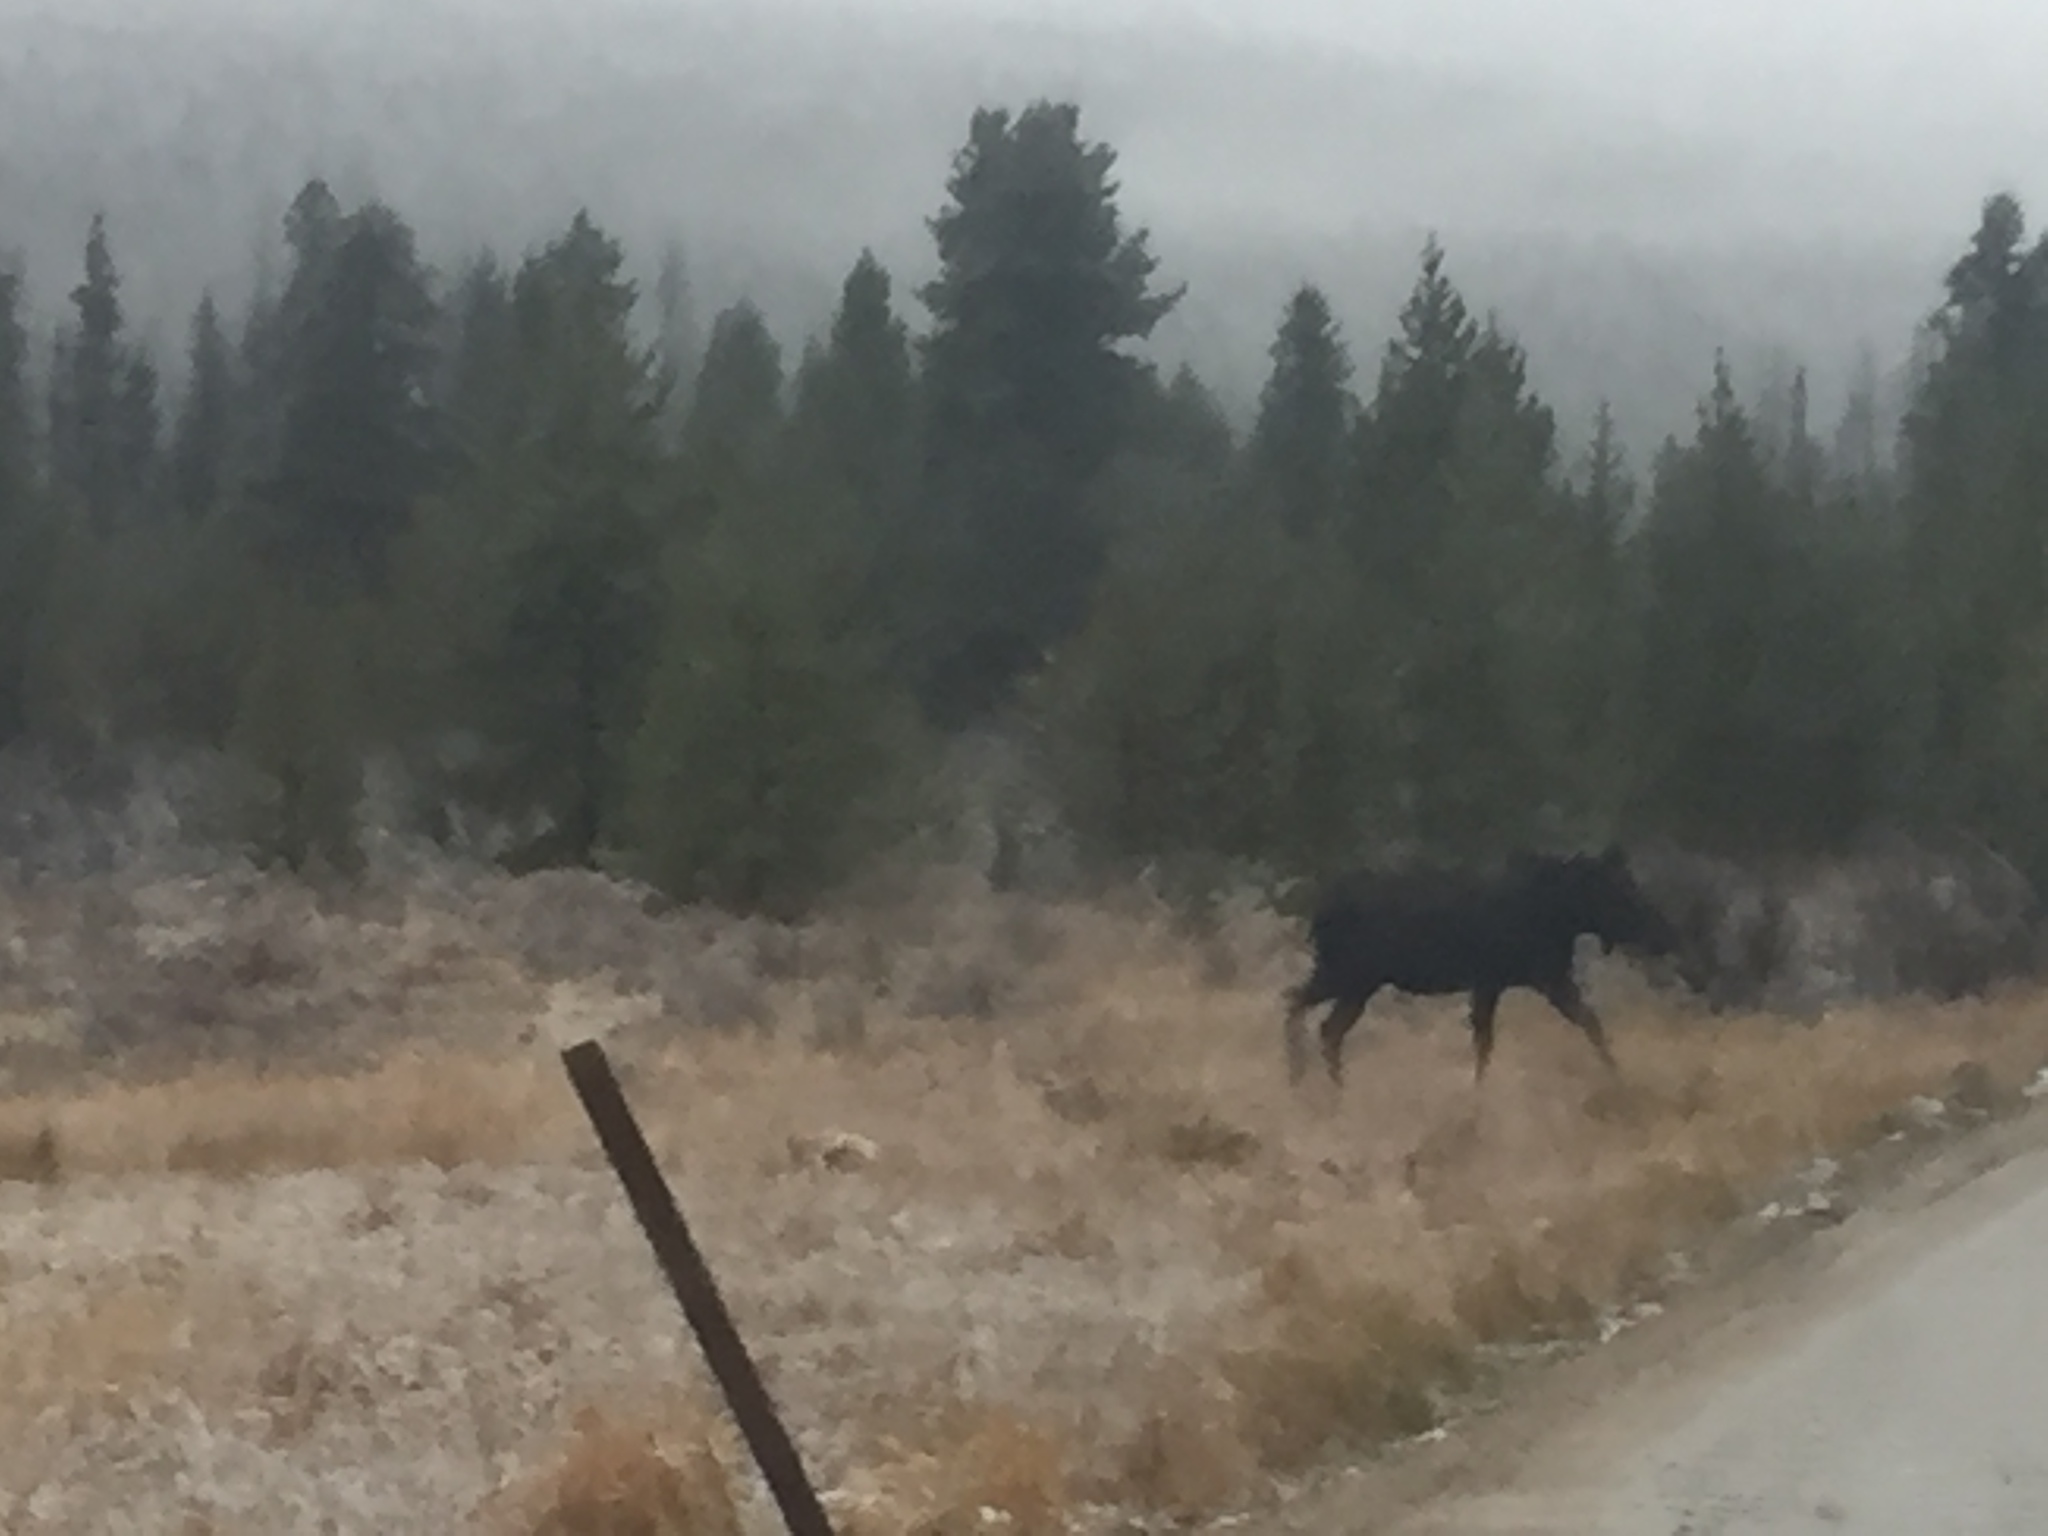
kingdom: Animalia
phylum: Chordata
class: Mammalia
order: Artiodactyla
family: Cervidae
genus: Alces
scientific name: Alces alces
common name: Moose
